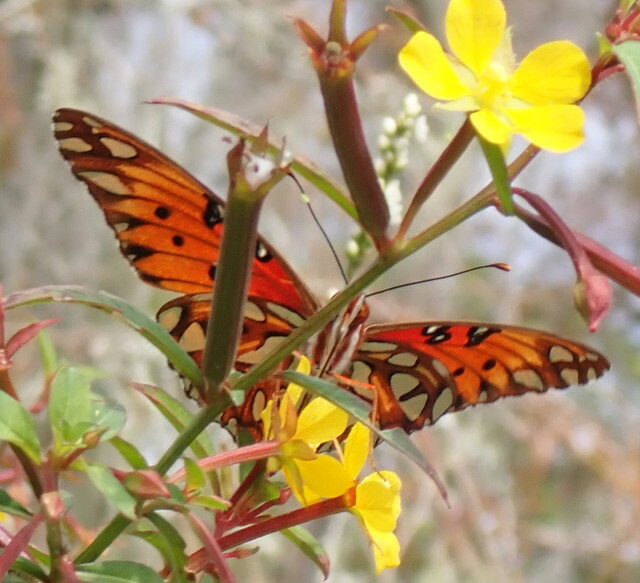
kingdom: Animalia
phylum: Arthropoda
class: Insecta
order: Lepidoptera
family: Nymphalidae
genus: Dione
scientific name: Dione vanillae
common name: Gulf fritillary
